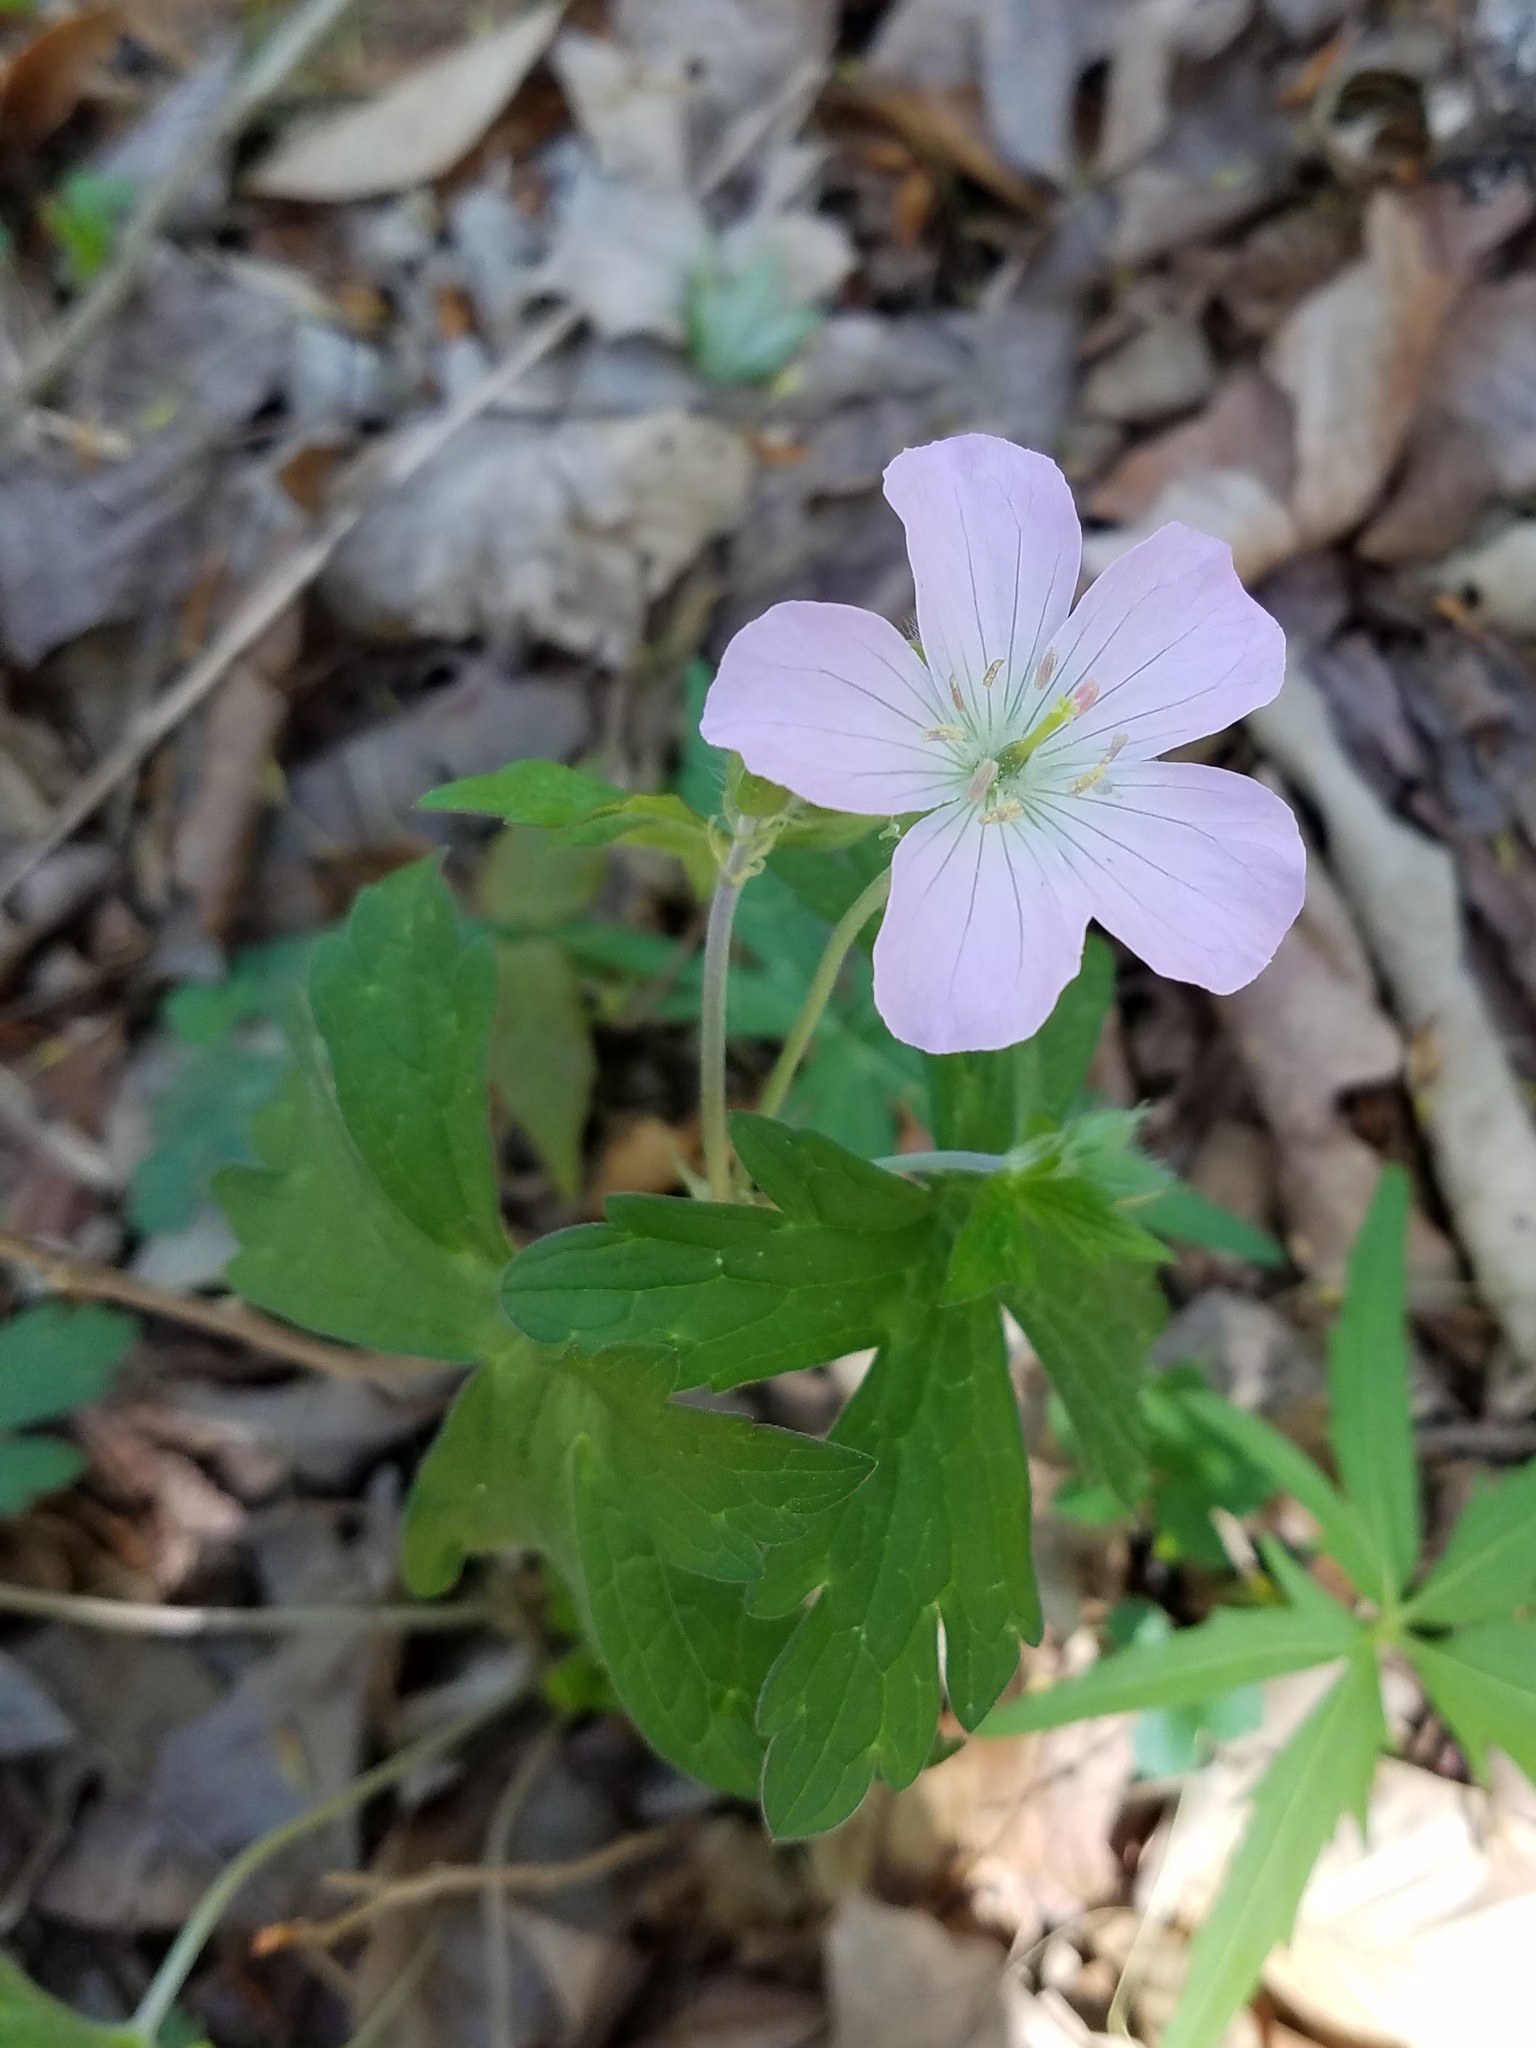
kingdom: Plantae
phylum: Tracheophyta
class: Magnoliopsida
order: Geraniales
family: Geraniaceae
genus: Geranium
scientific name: Geranium maculatum
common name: Spotted geranium
